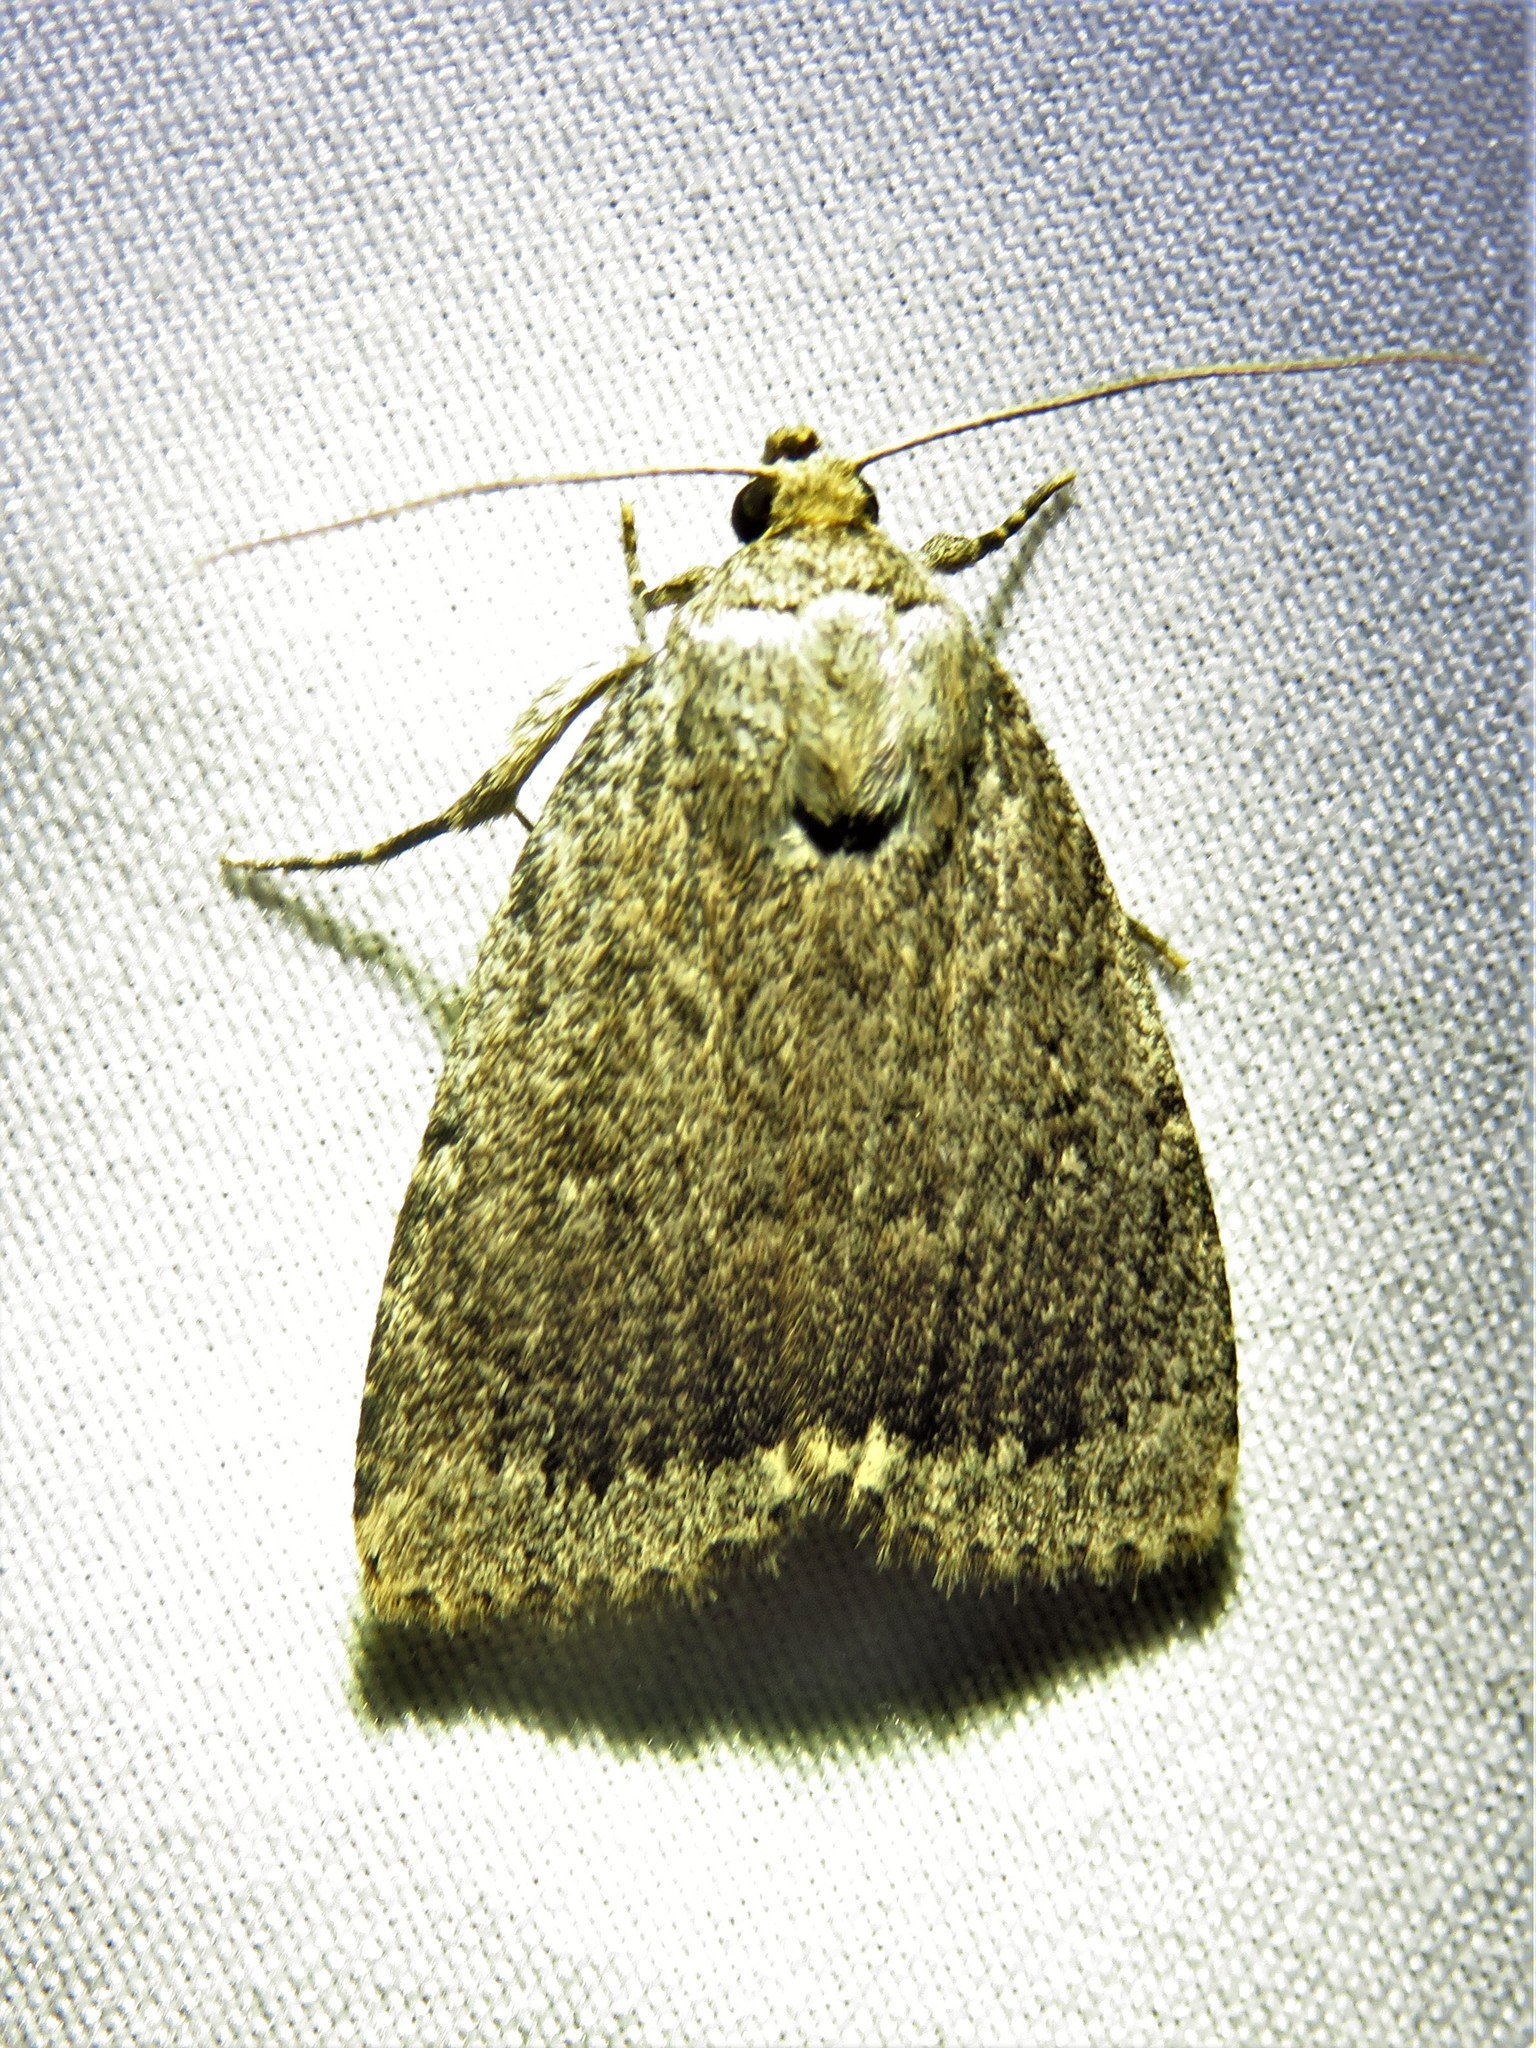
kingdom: Animalia
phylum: Arthropoda
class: Insecta
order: Lepidoptera
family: Noctuidae
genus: Amphipyra
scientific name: Amphipyra glabella
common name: Smooth amphipyra moth
